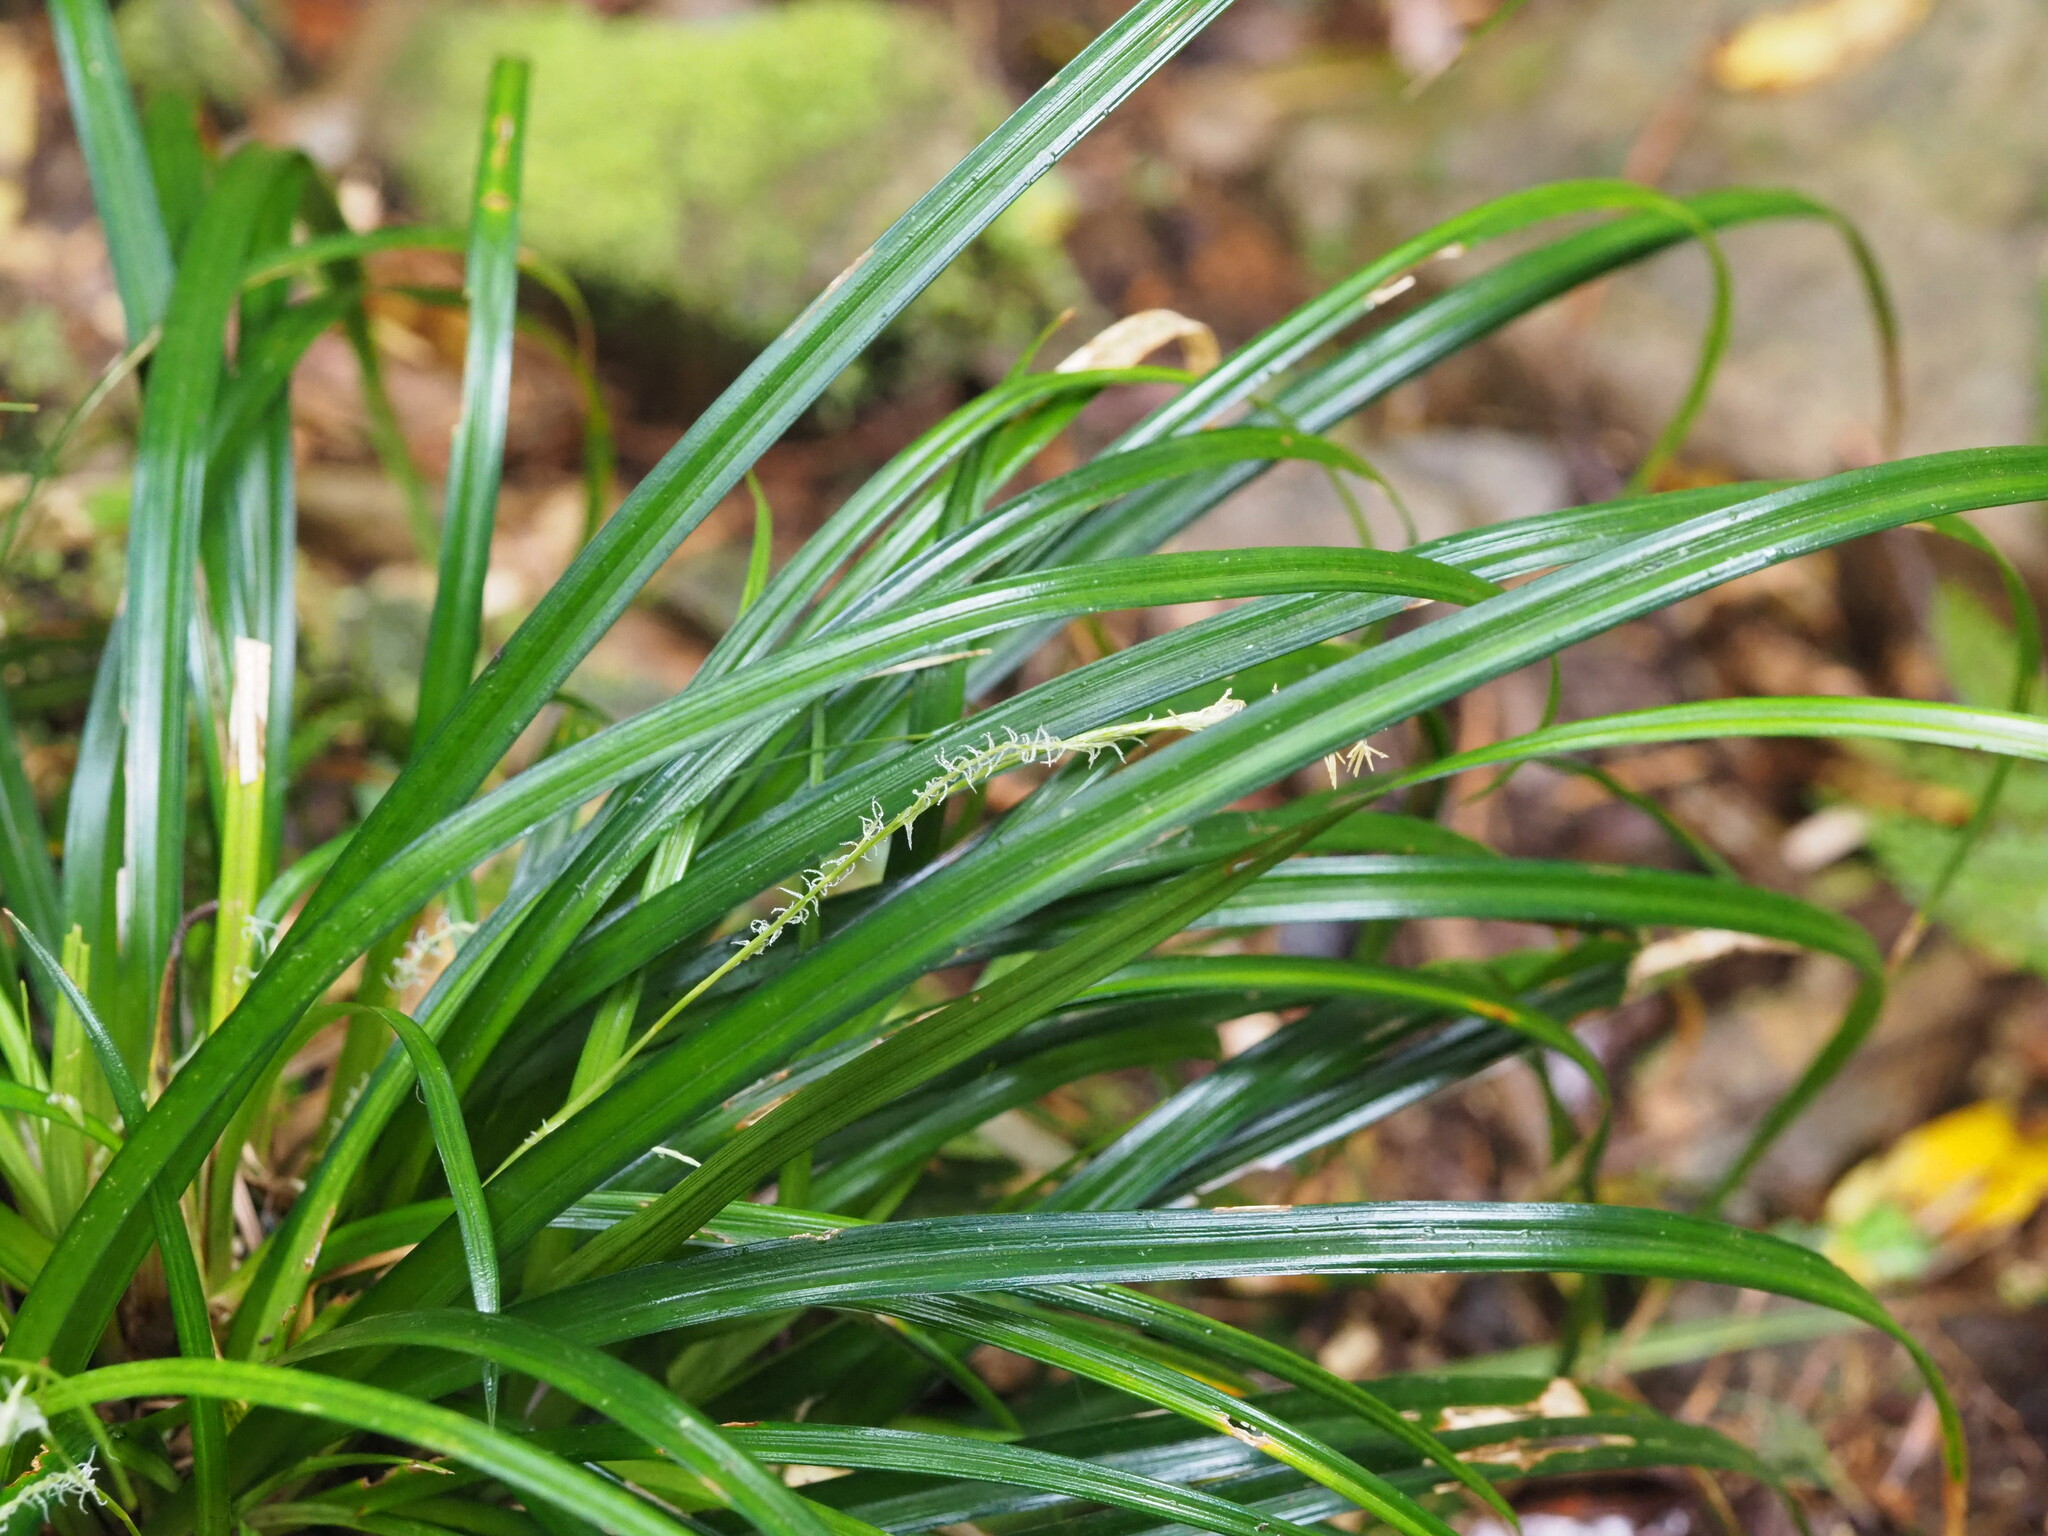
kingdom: Plantae
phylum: Tracheophyta
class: Liliopsida
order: Poales
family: Cyperaceae
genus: Carex
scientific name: Carex dolichostachya
